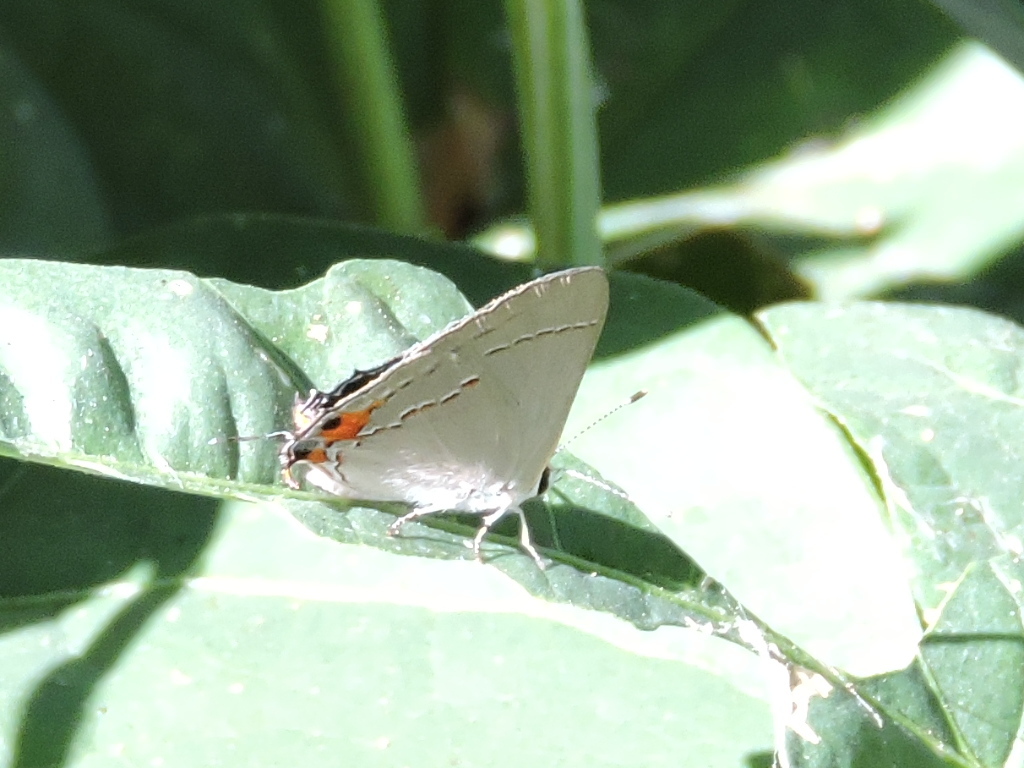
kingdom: Animalia
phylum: Arthropoda
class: Insecta
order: Lepidoptera
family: Lycaenidae
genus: Strymon
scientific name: Strymon melinus
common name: Gray hairstreak
